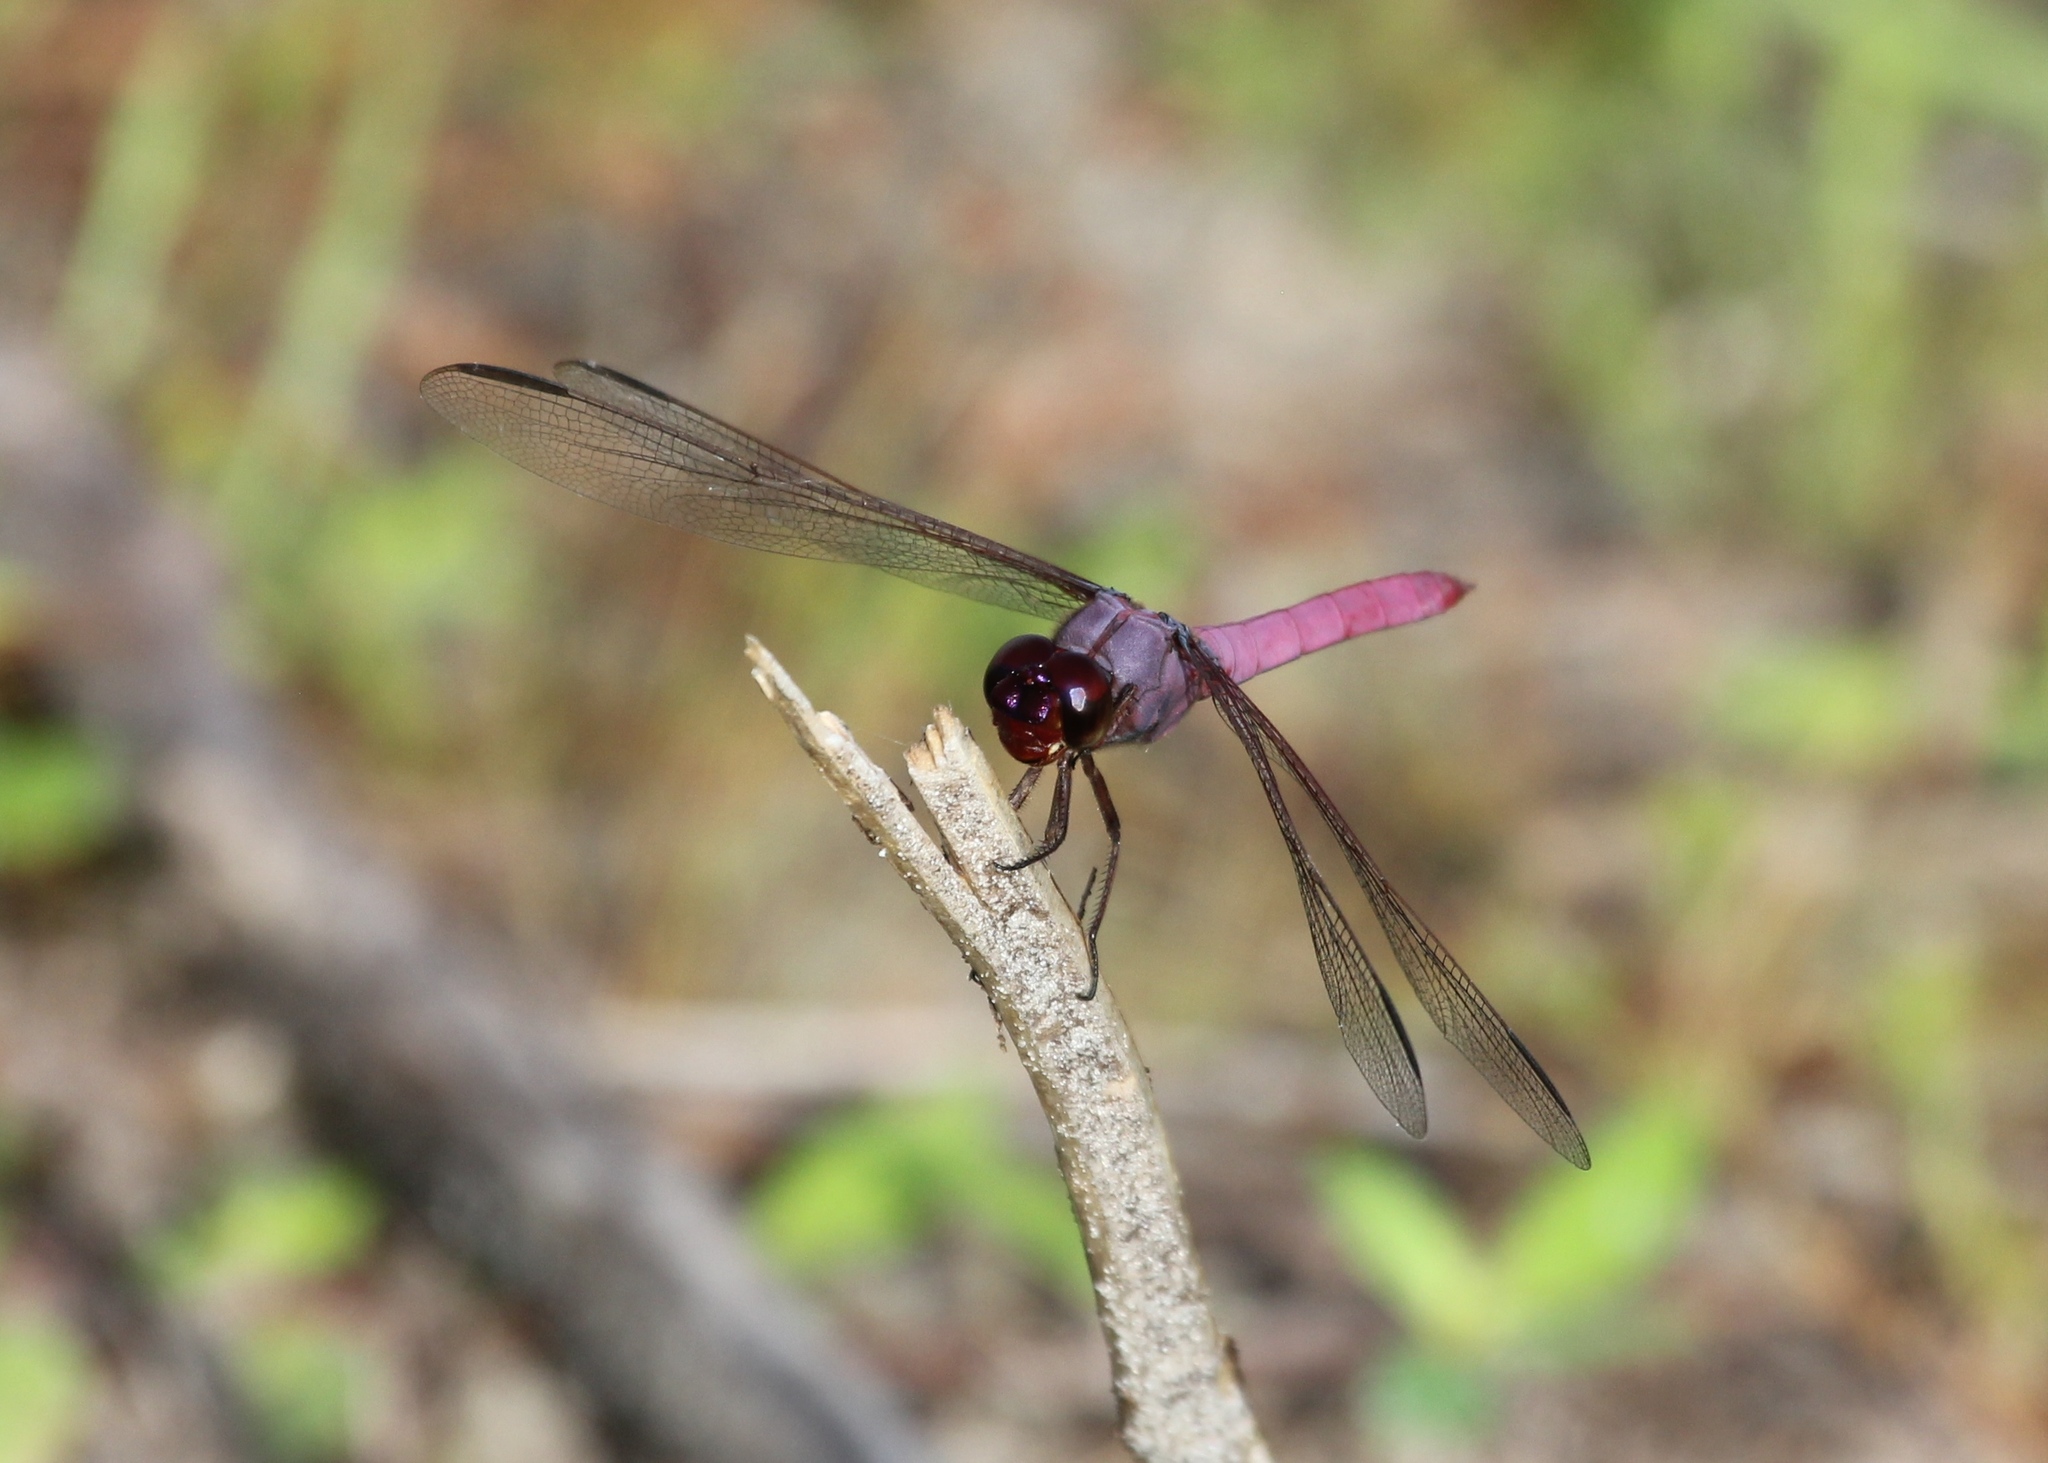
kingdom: Animalia
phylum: Arthropoda
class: Insecta
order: Odonata
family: Libellulidae
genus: Orthemis
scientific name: Orthemis ferruginea
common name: Roseate skimmer
